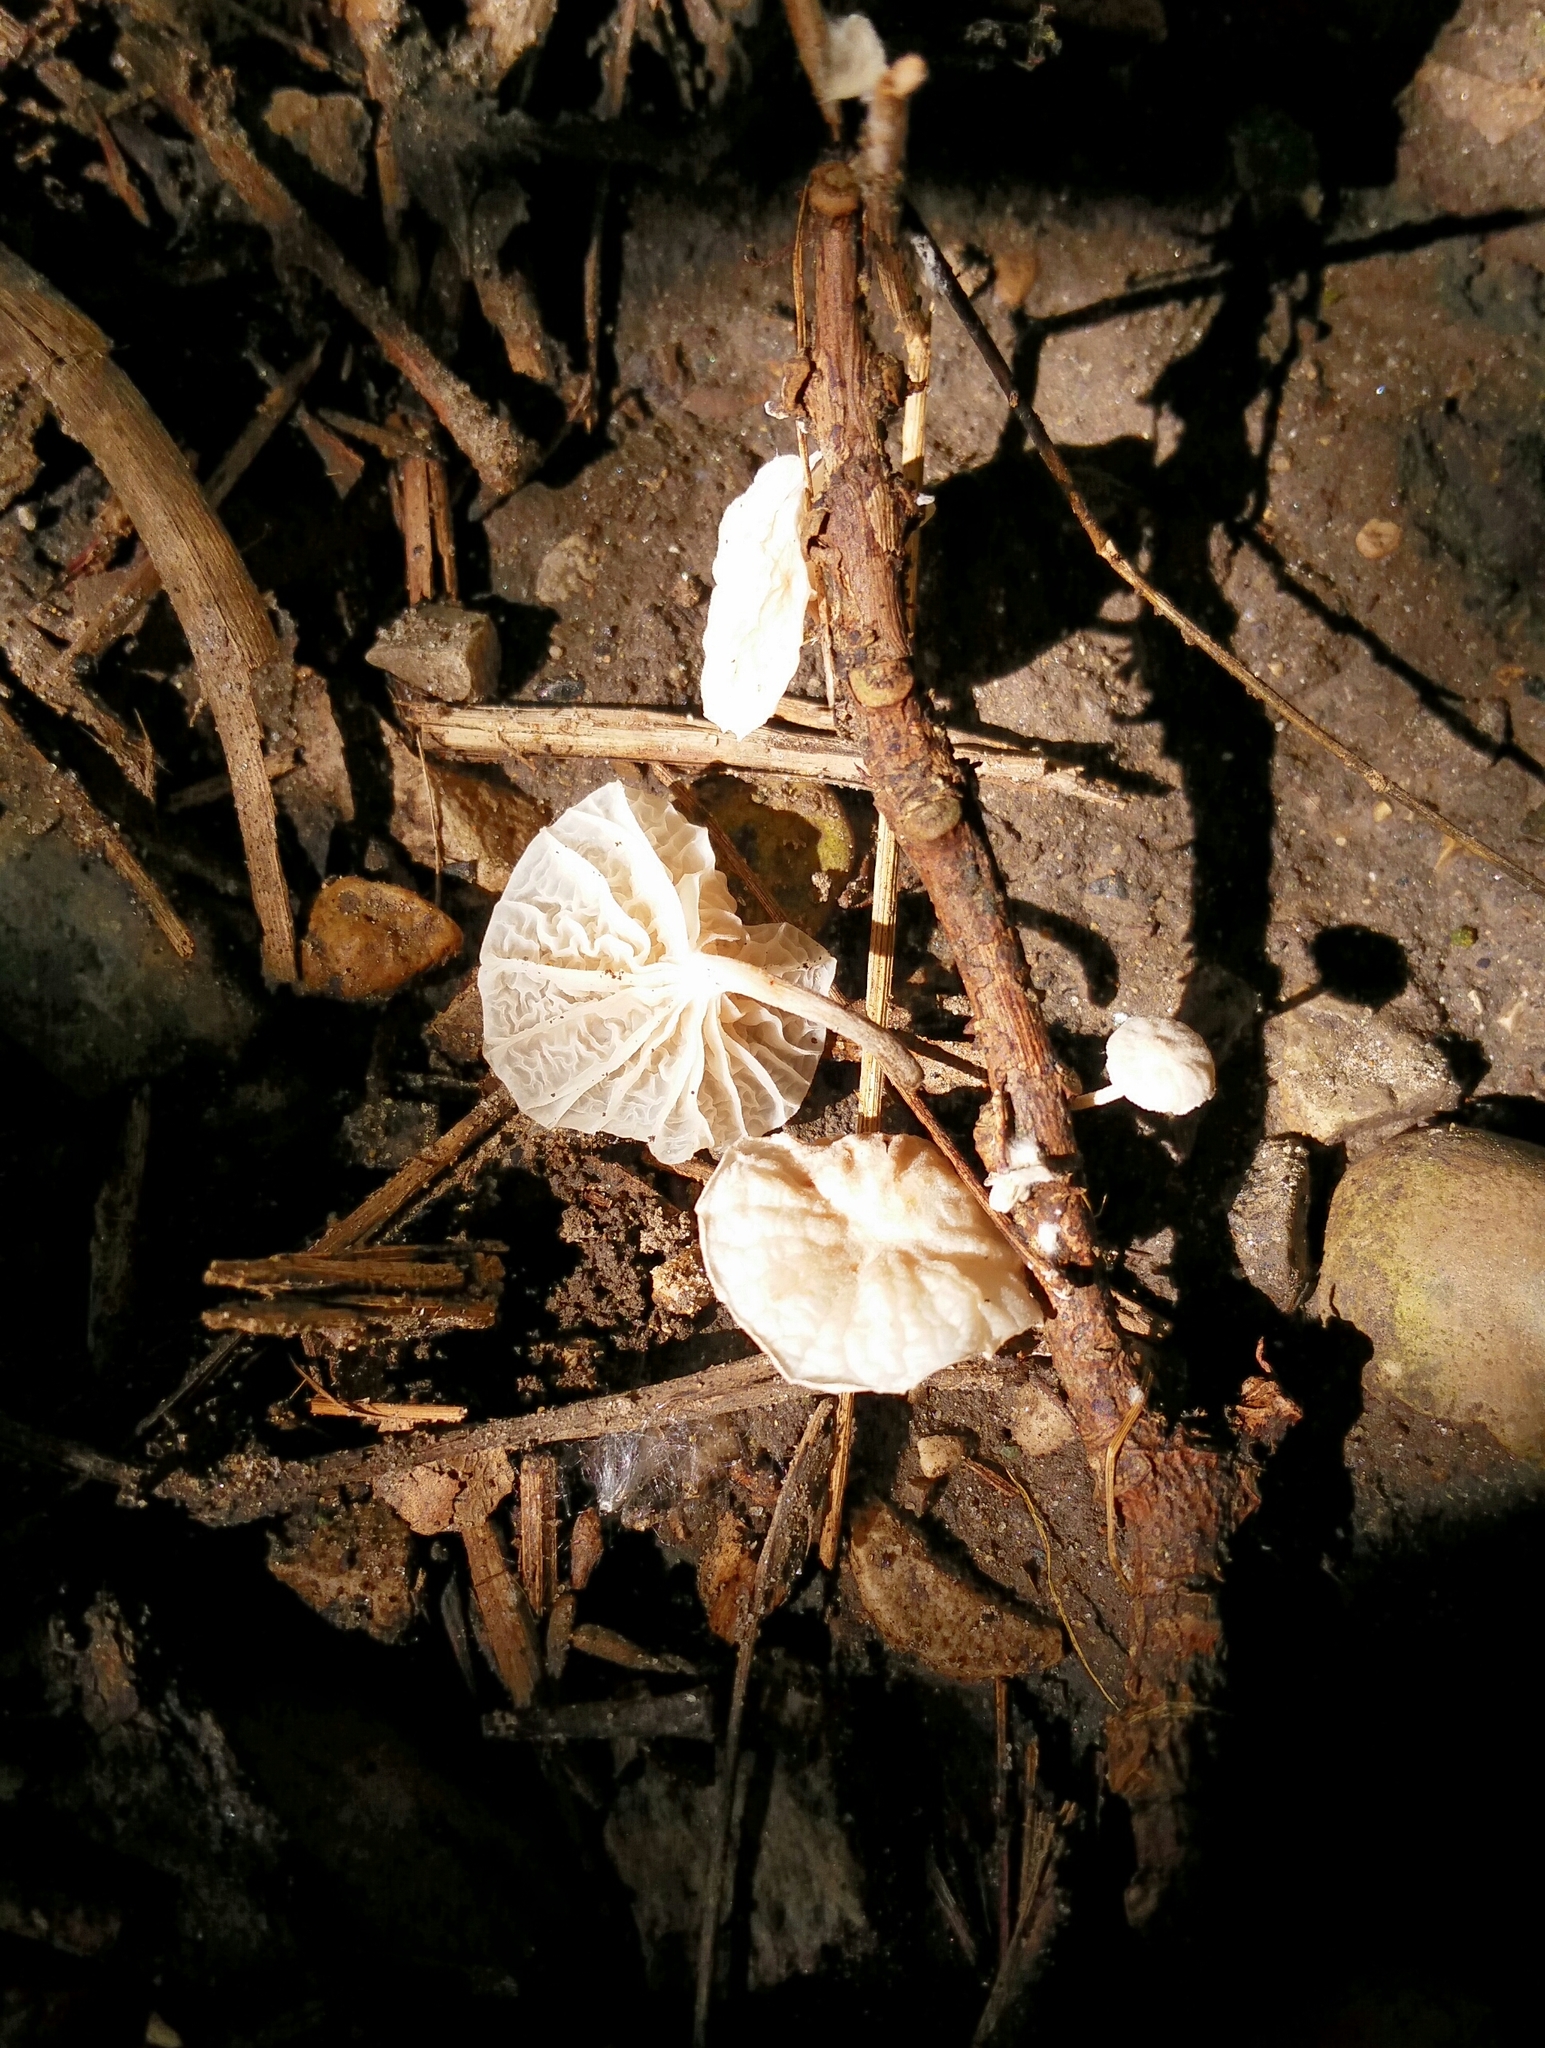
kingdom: Fungi
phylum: Basidiomycota
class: Agaricomycetes
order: Agaricales
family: Omphalotaceae
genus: Marasmiellus
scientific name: Marasmiellus candidus
